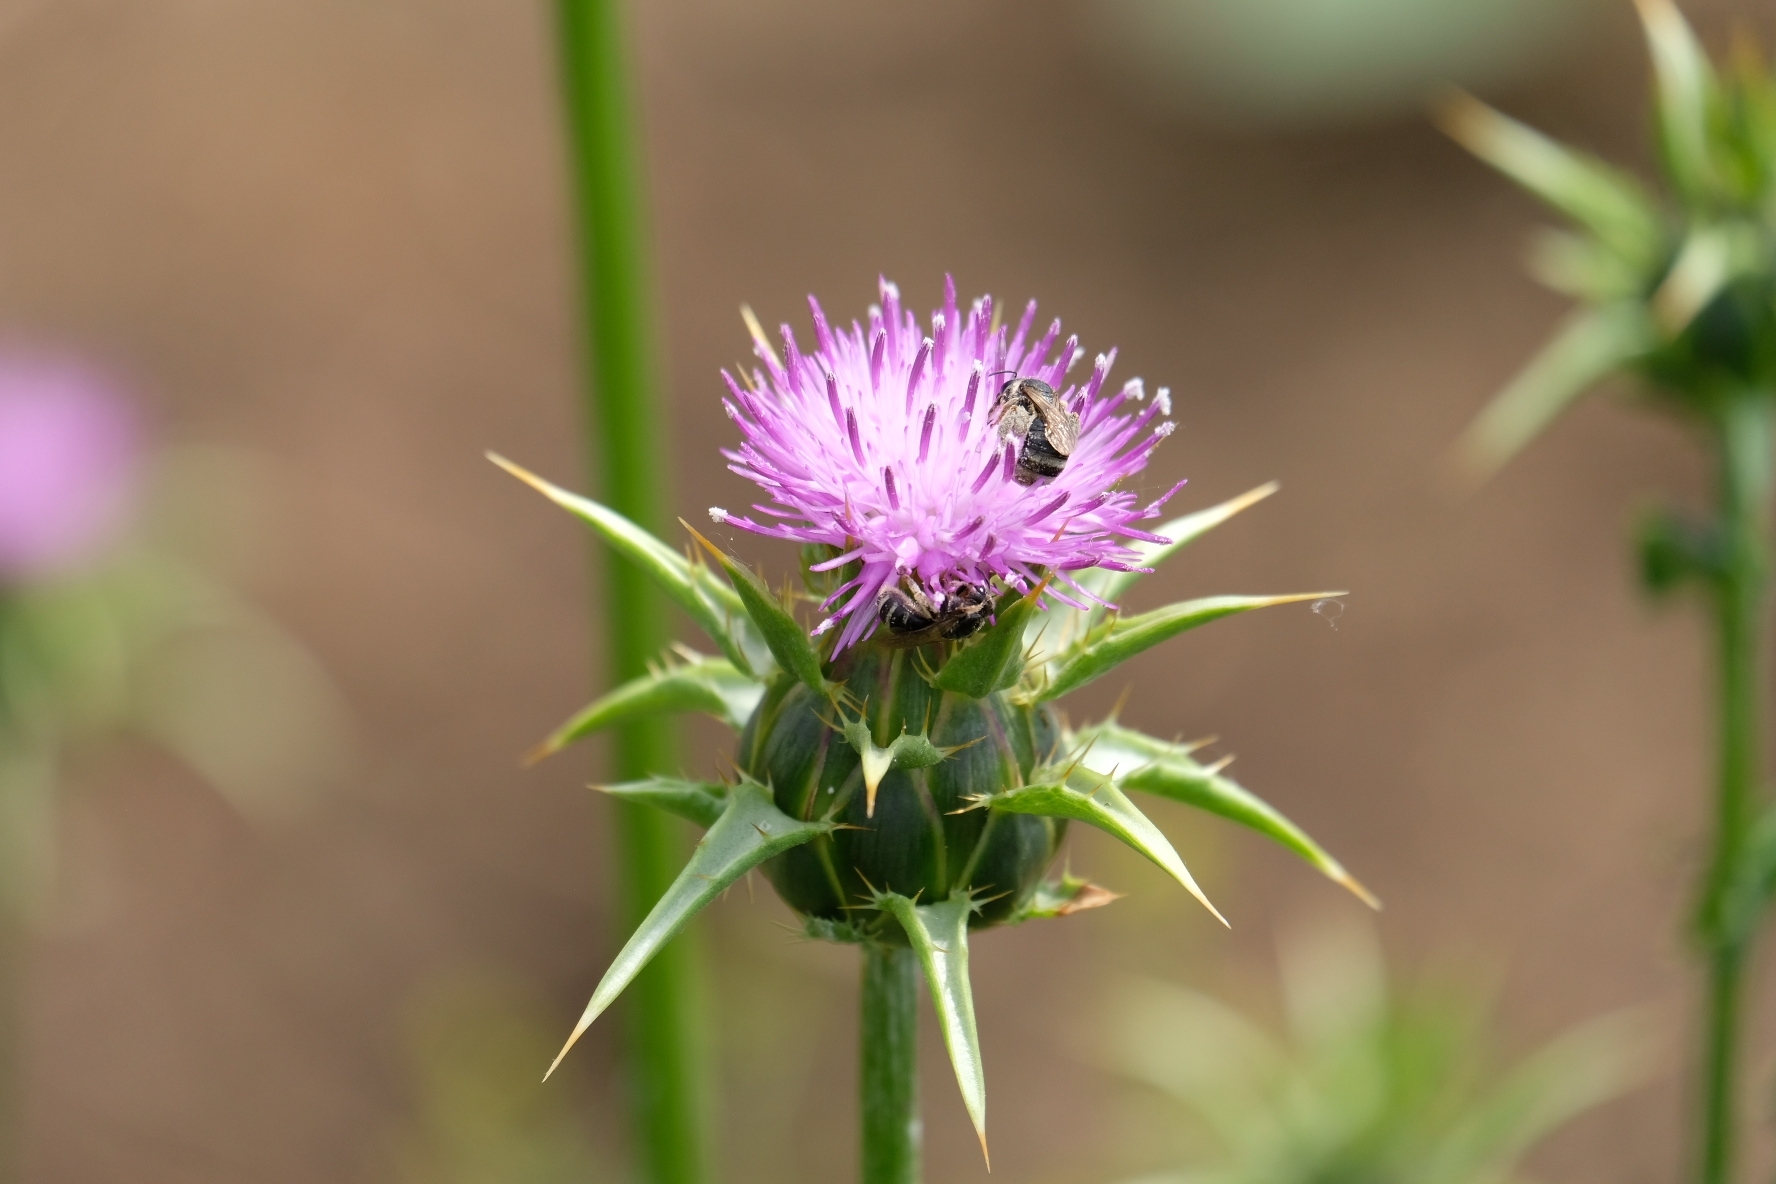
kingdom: Plantae
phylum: Tracheophyta
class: Magnoliopsida
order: Asterales
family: Asteraceae
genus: Silybum
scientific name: Silybum marianum
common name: Milk thistle
